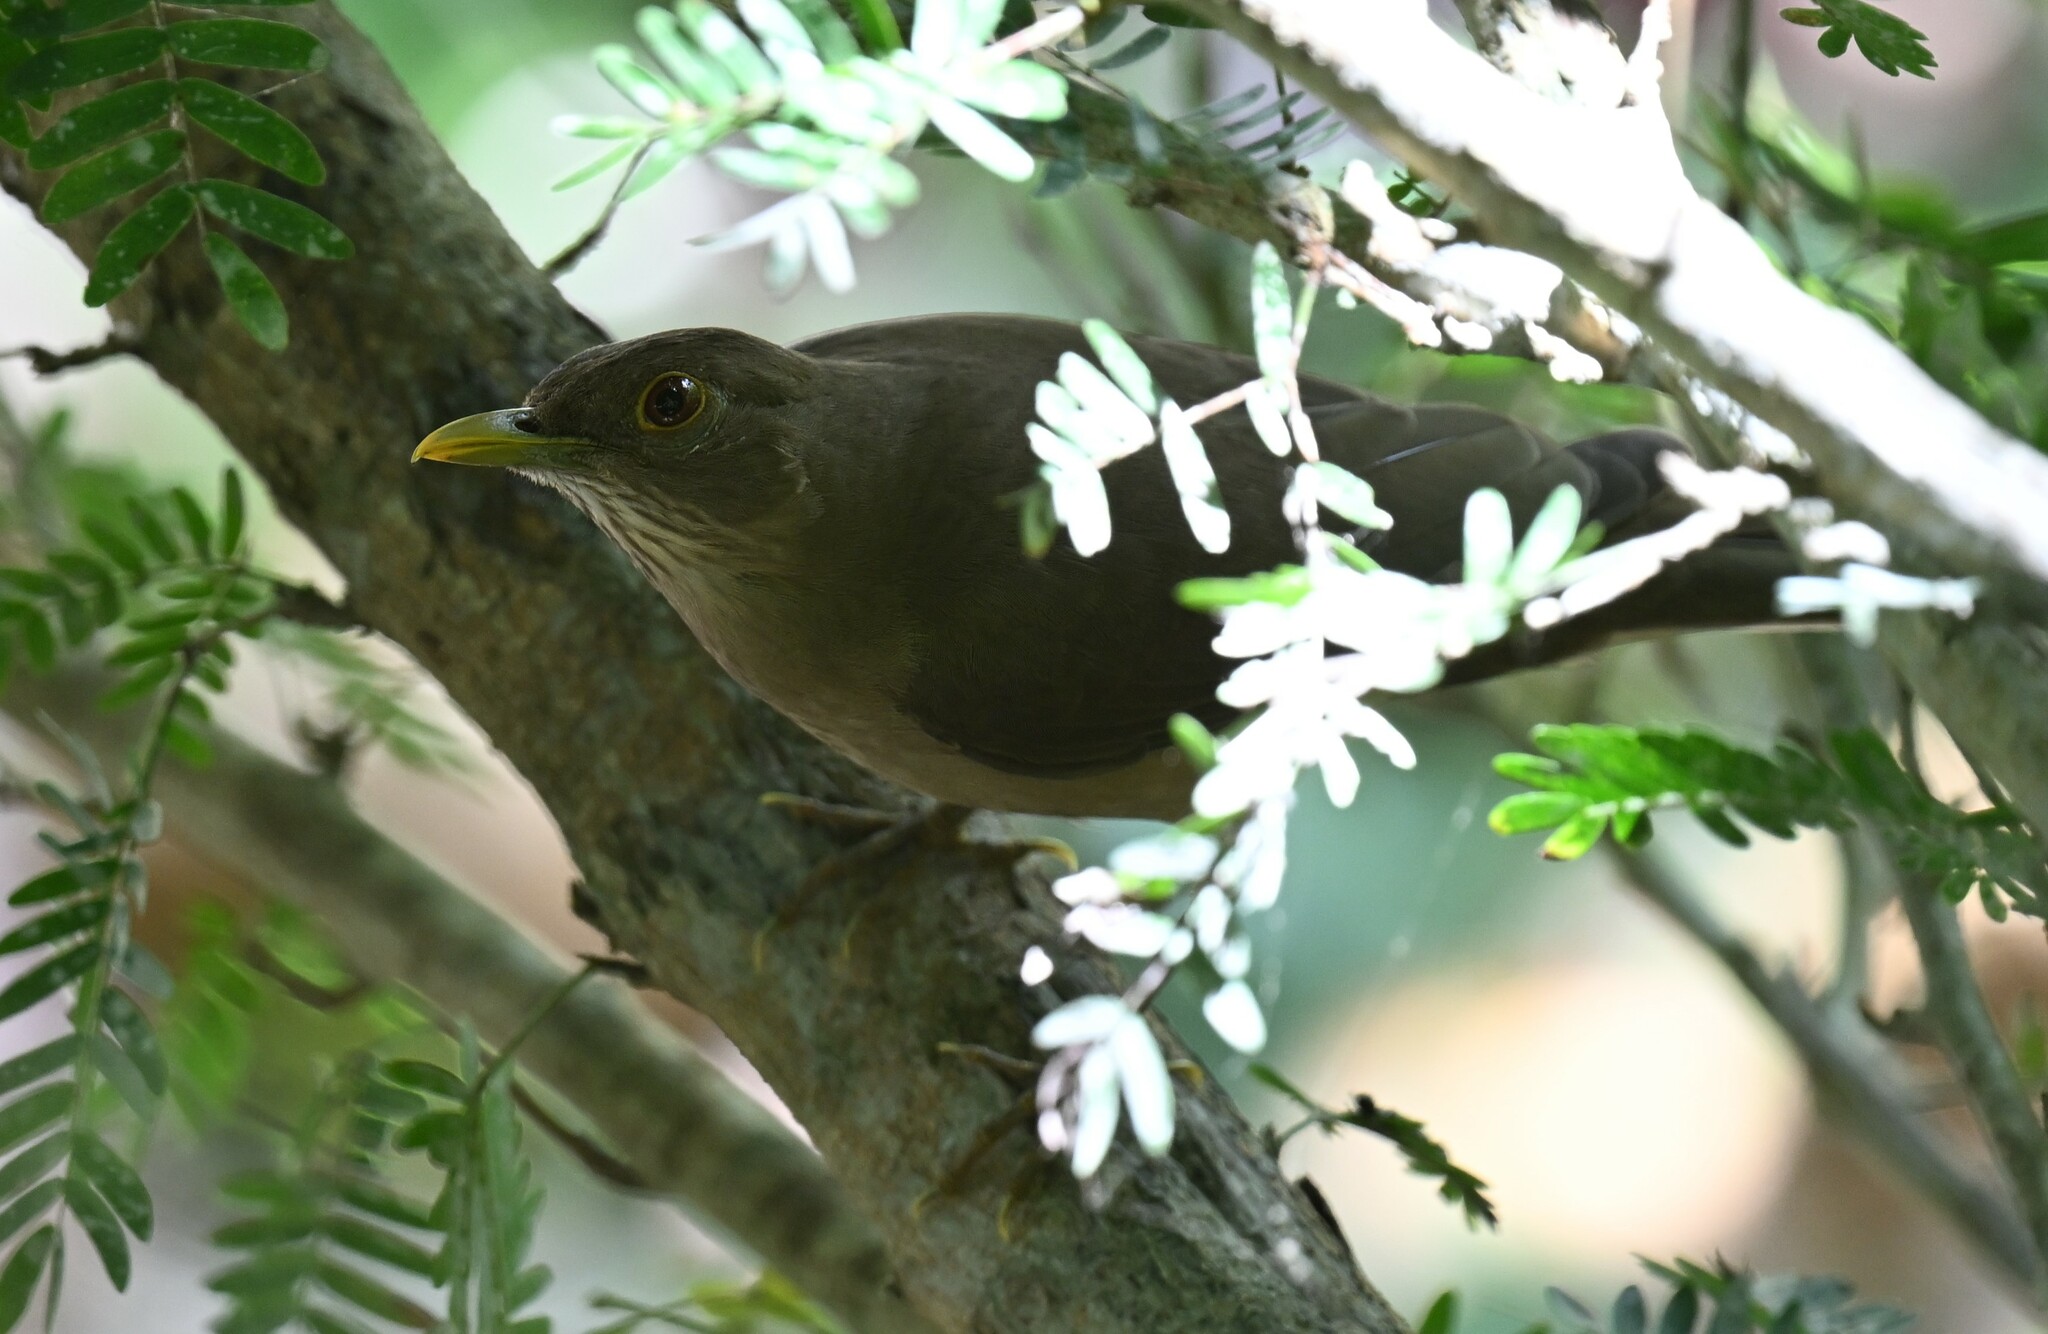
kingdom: Animalia
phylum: Chordata
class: Aves
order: Passeriformes
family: Turdidae
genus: Turdus
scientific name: Turdus grayi
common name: Clay-colored thrush
